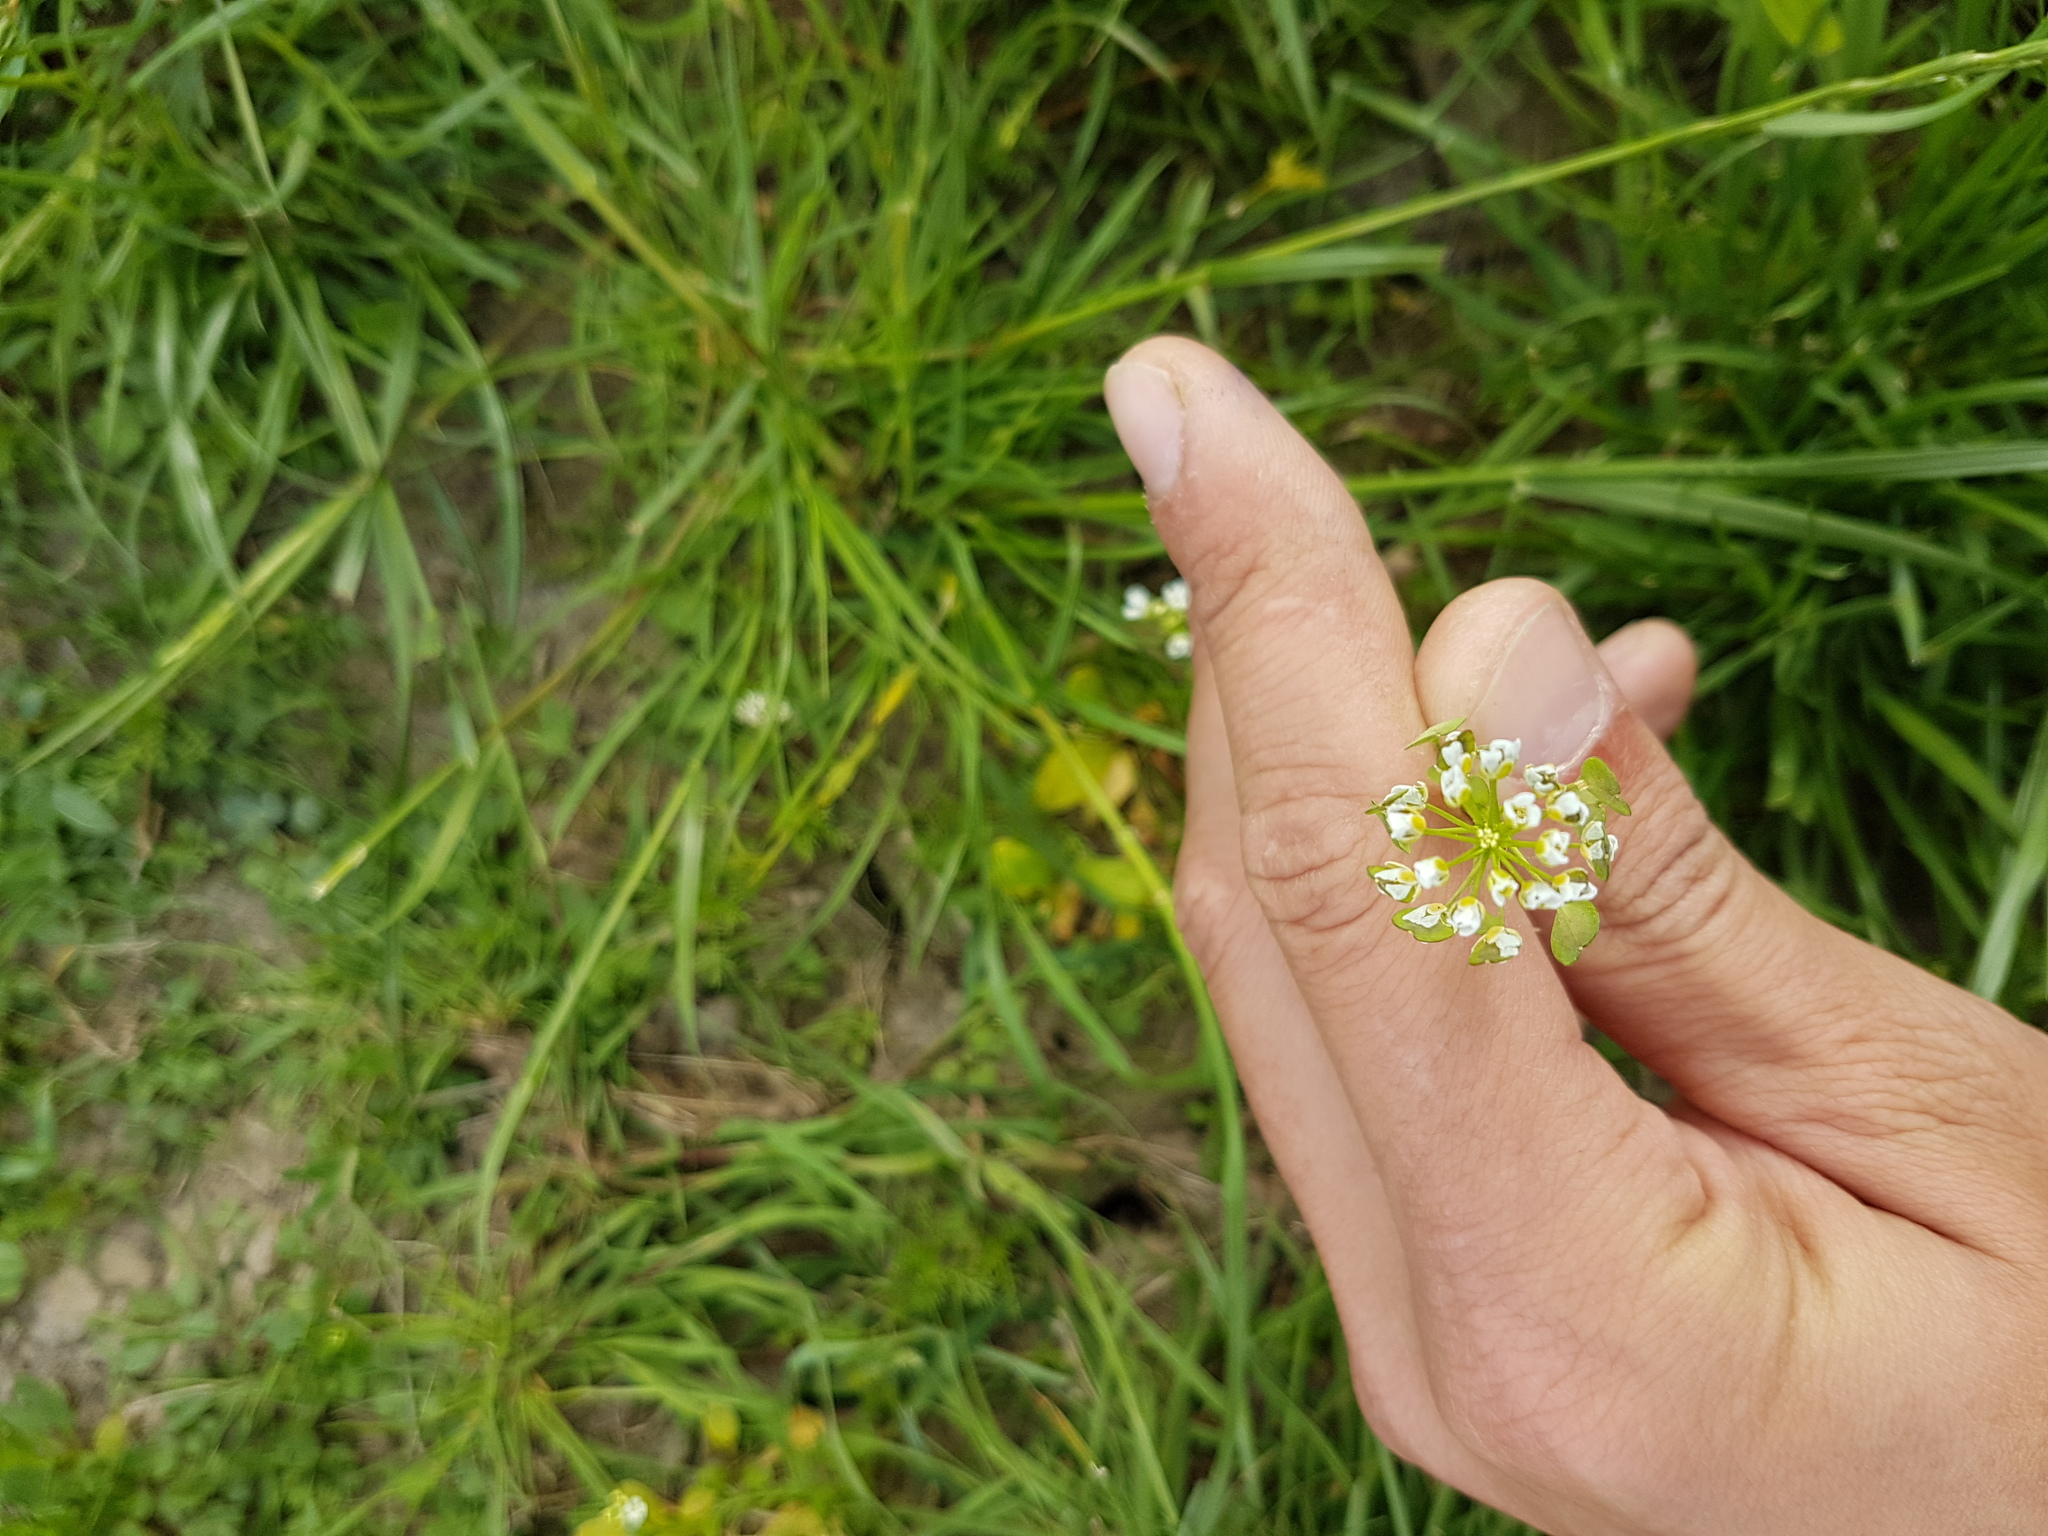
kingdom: Plantae
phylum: Tracheophyta
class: Magnoliopsida
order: Brassicales
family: Brassicaceae
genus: Thlaspi
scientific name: Thlaspi arvense
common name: Field pennycress
